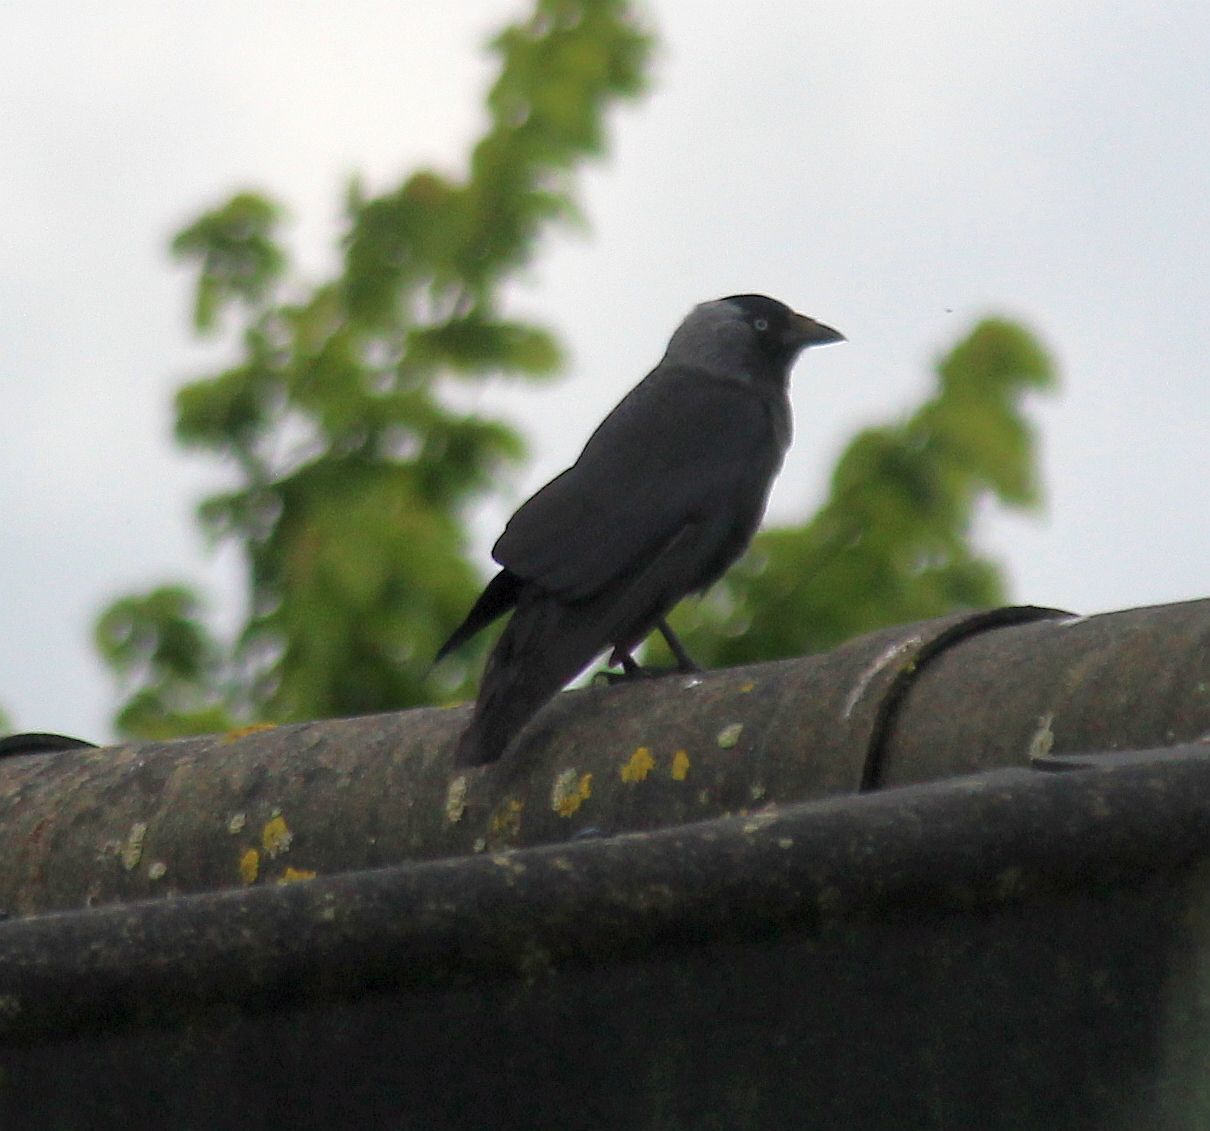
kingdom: Animalia
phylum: Chordata
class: Aves
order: Passeriformes
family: Corvidae
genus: Coloeus
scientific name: Coloeus monedula
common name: Western jackdaw
